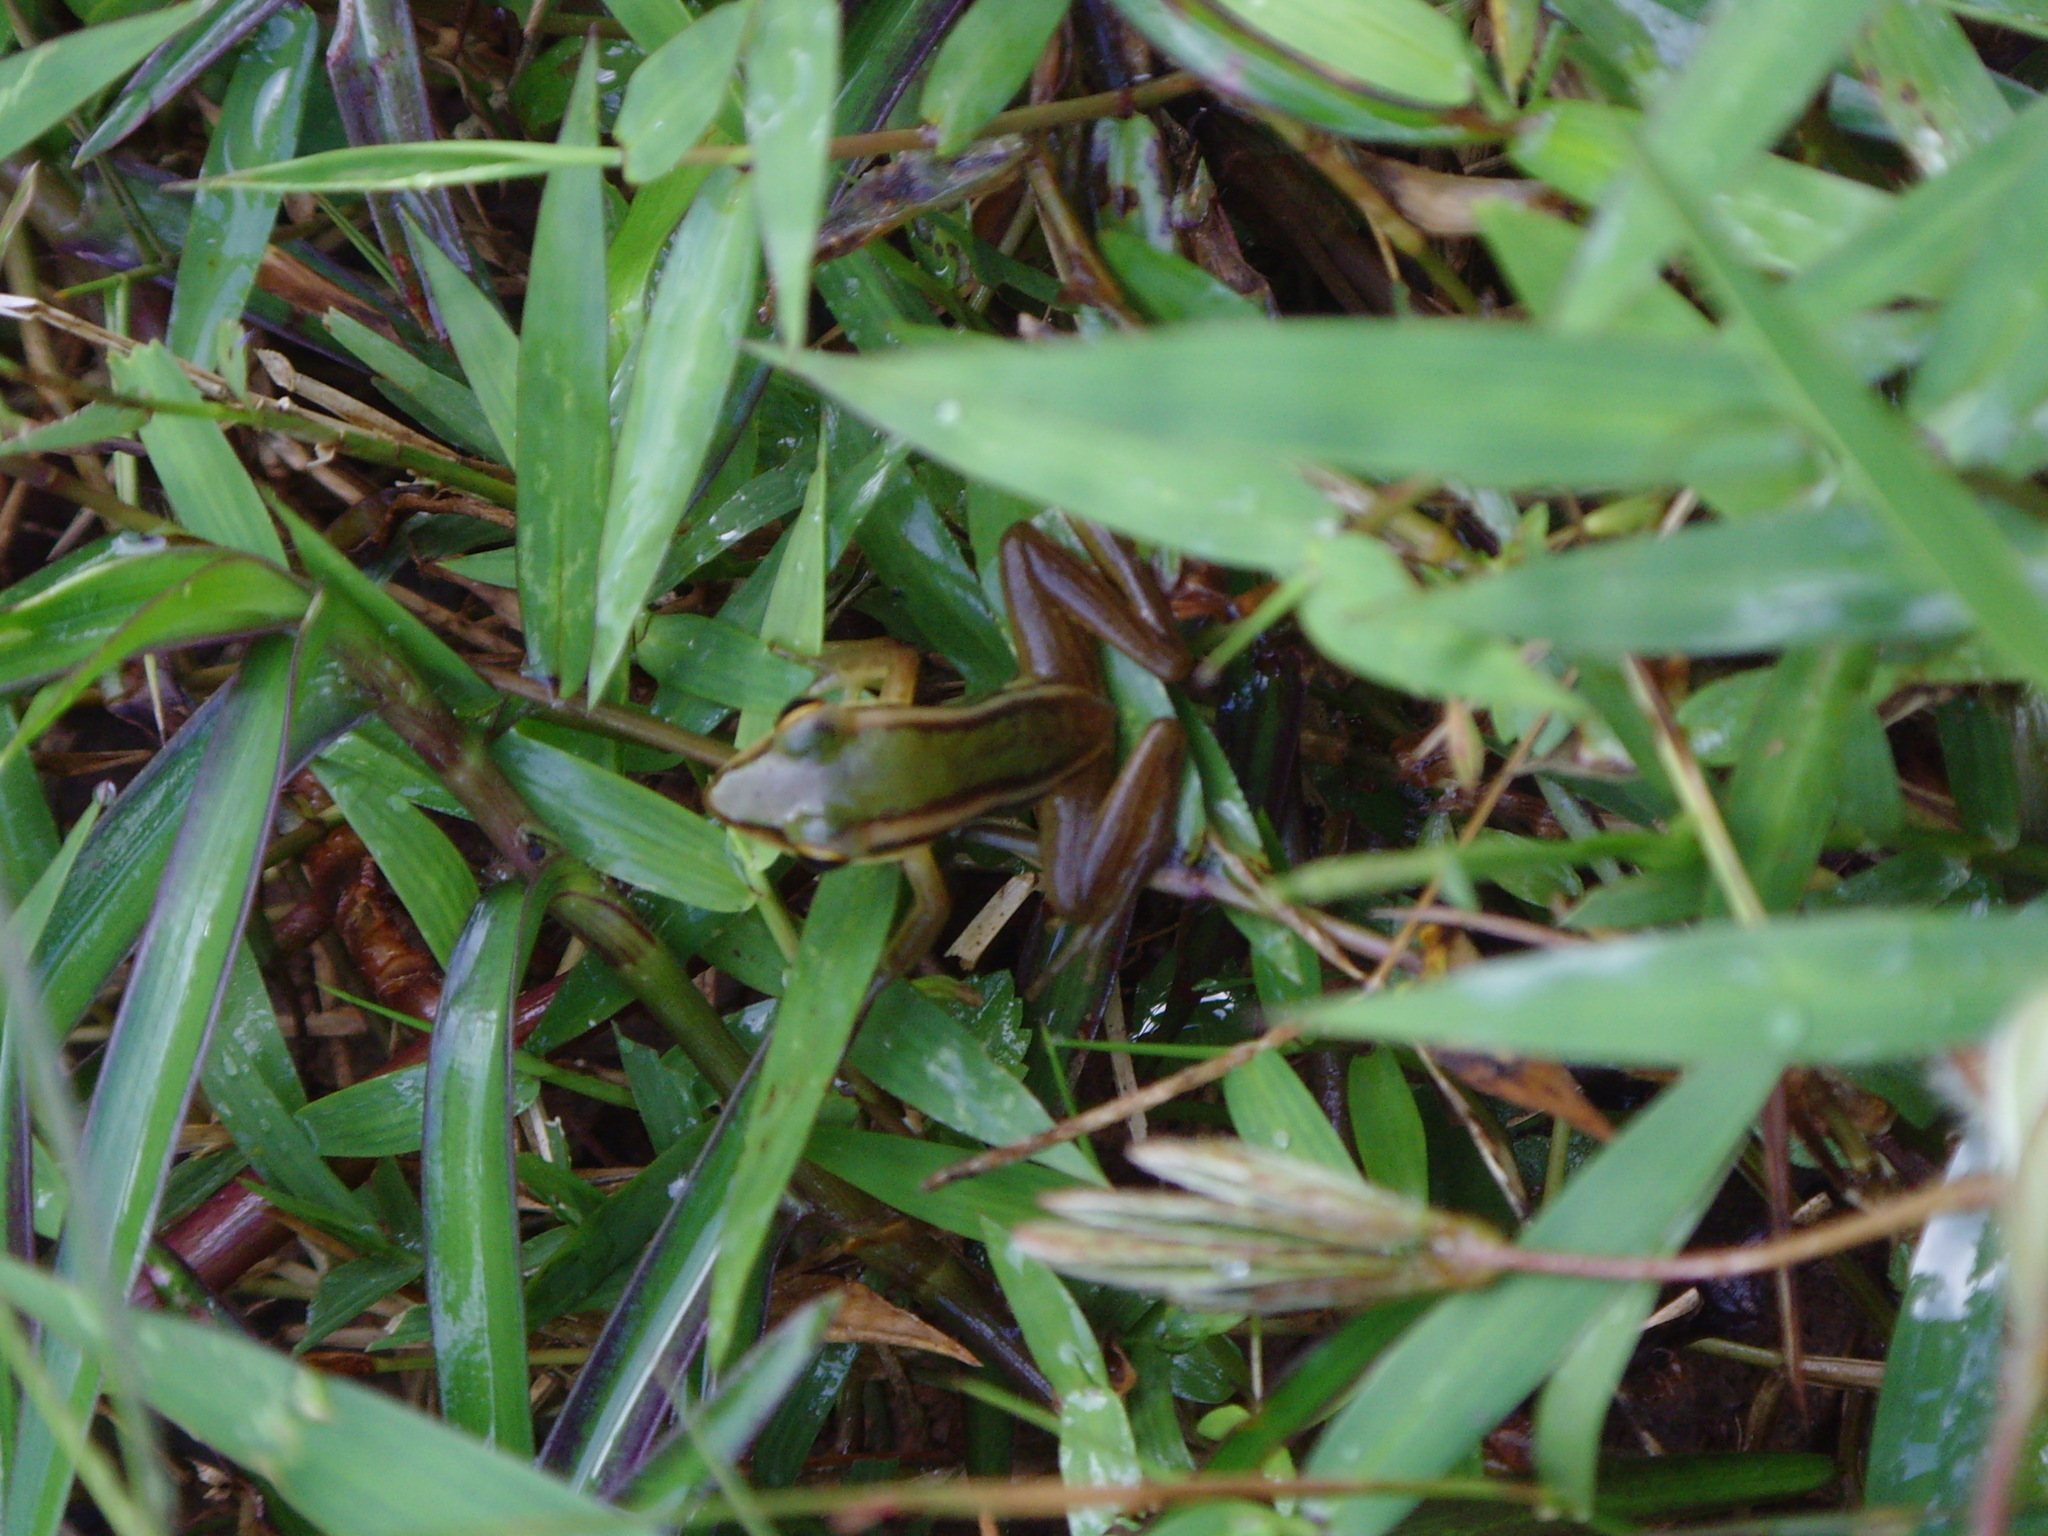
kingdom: Animalia
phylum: Chordata
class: Amphibia
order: Anura
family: Ranidae
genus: Hylarana
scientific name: Hylarana erythraea
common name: Common green frog/green paddy frog/leaf frog
